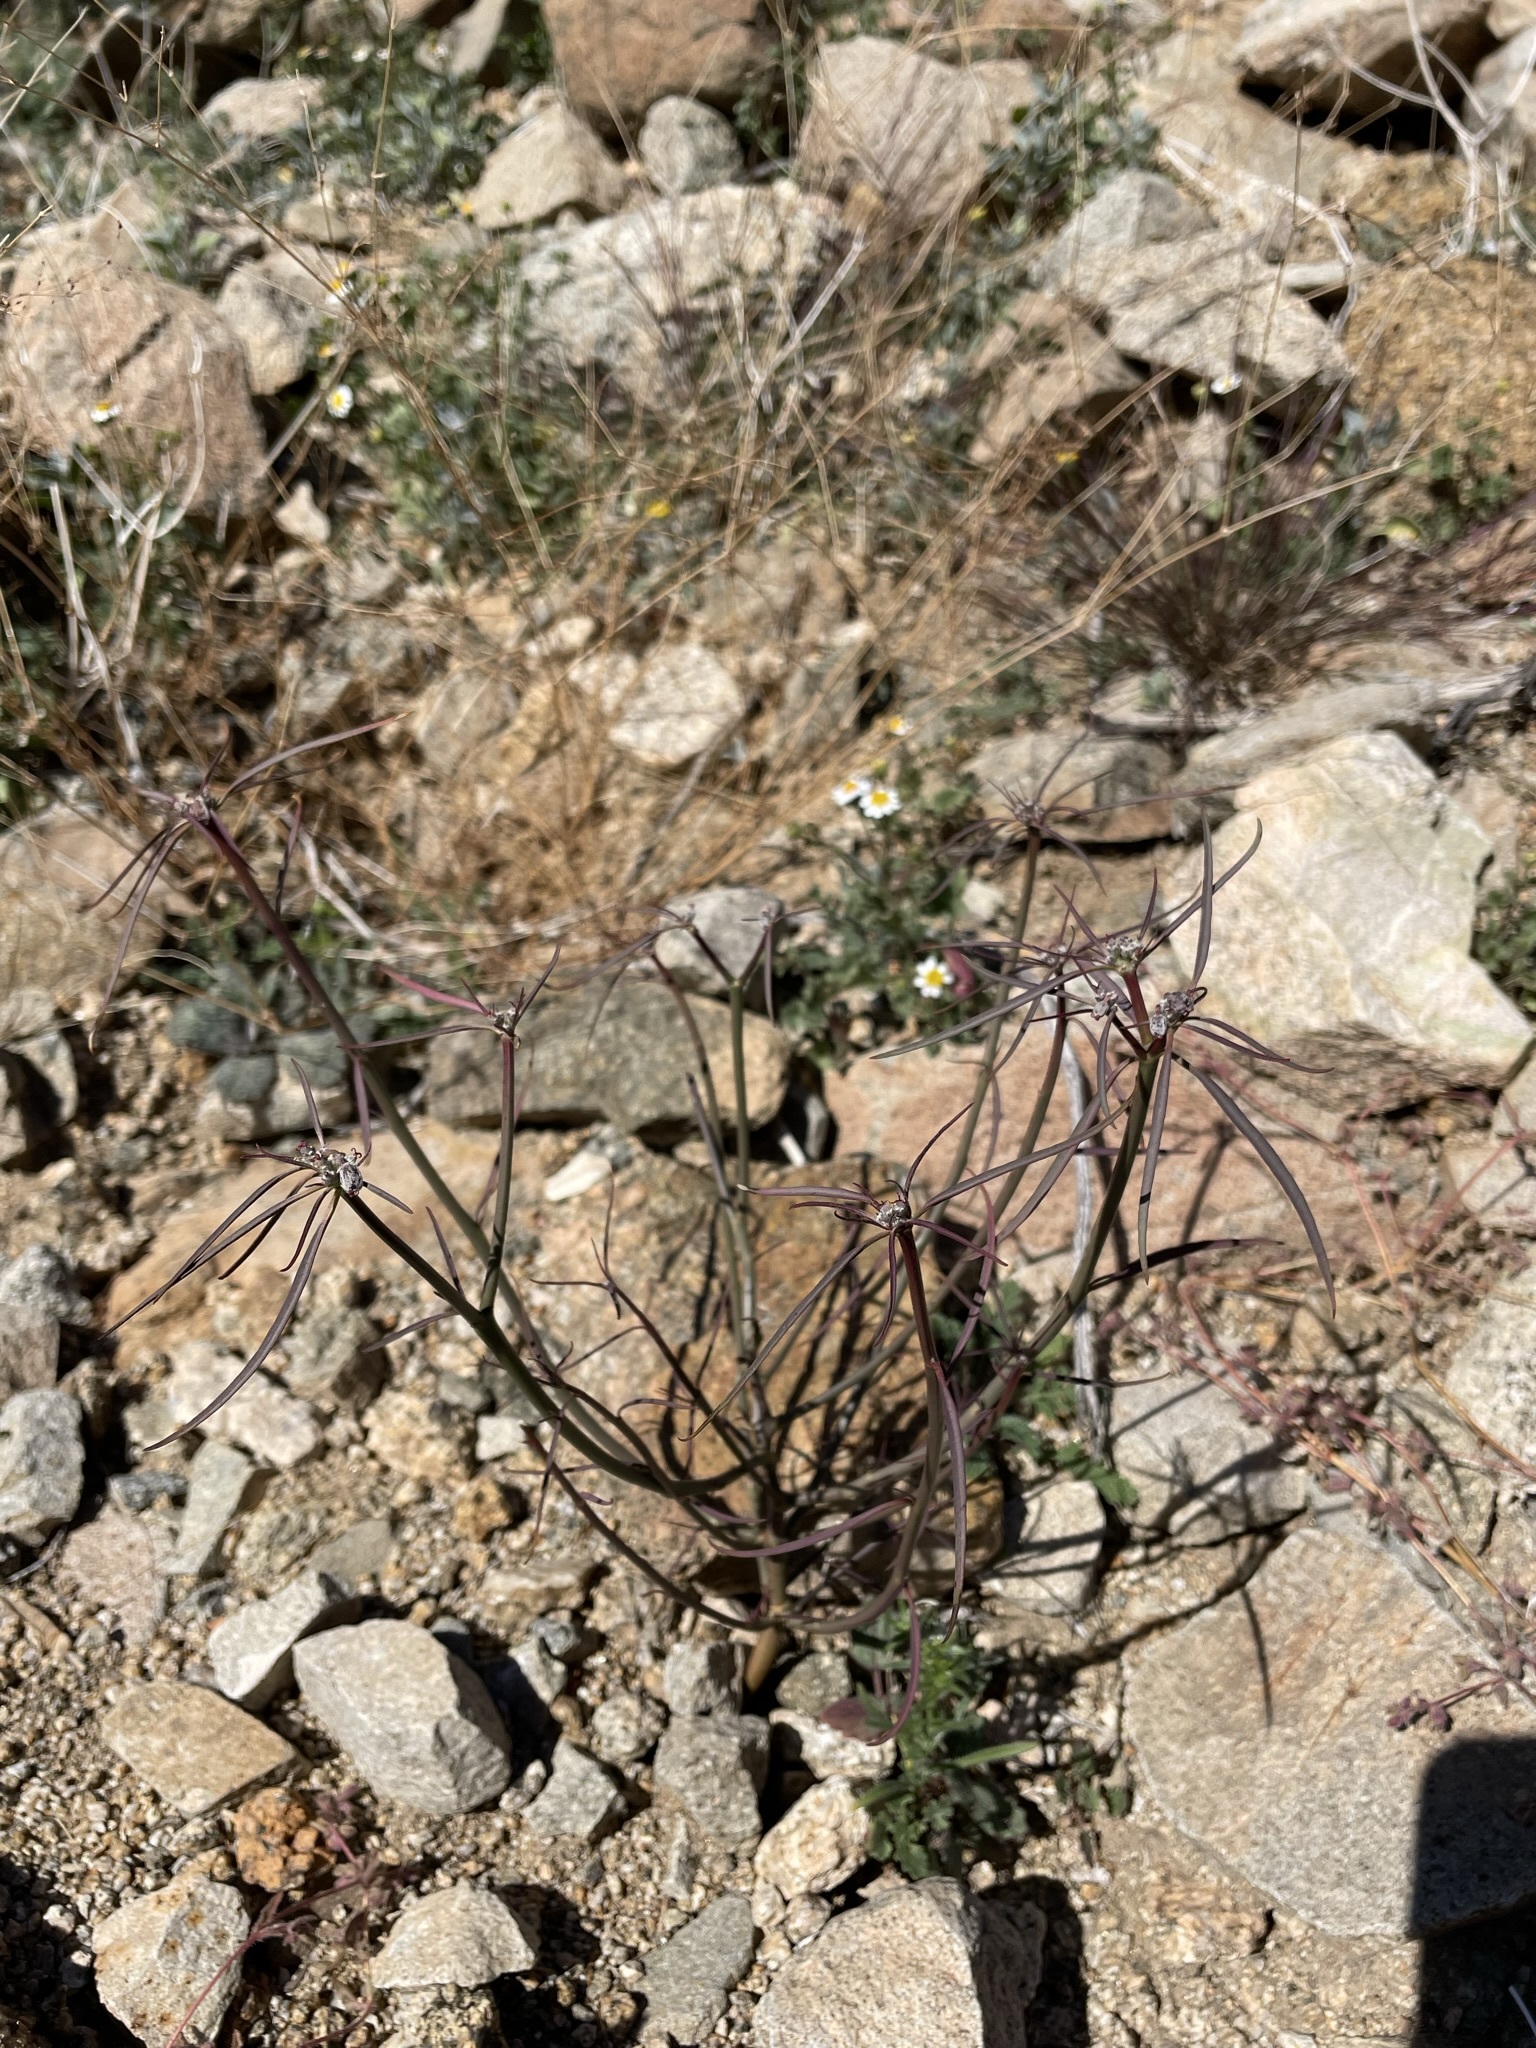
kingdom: Plantae
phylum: Tracheophyta
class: Magnoliopsida
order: Malpighiales
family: Euphorbiaceae
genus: Euphorbia
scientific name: Euphorbia eriantha
